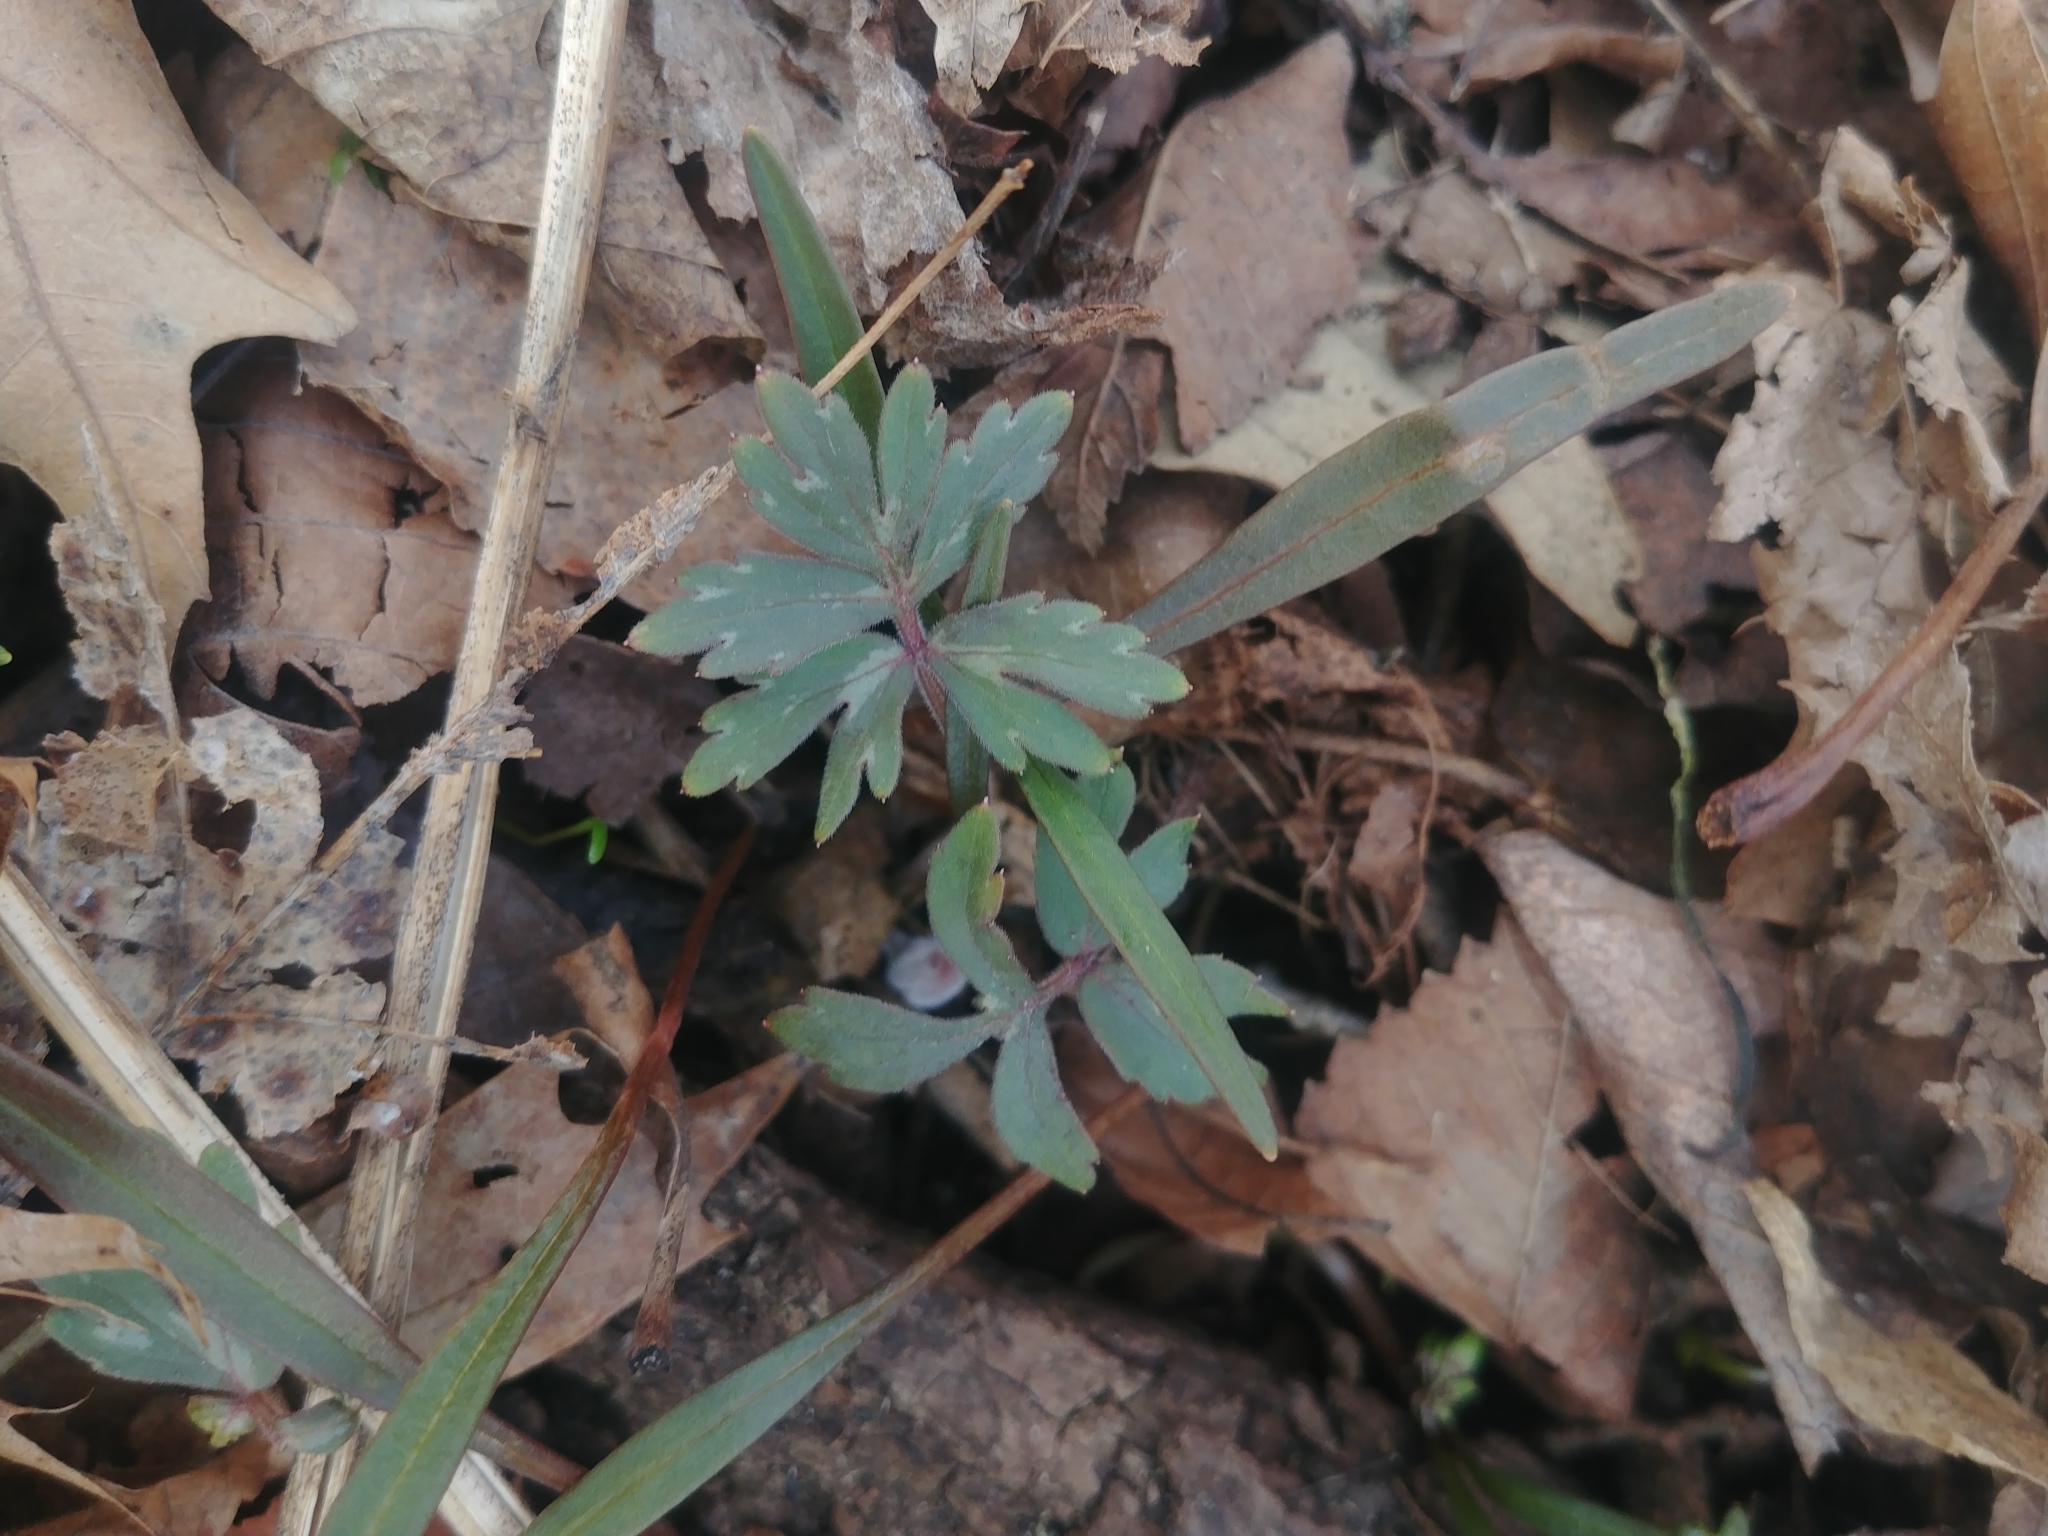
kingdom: Plantae
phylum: Tracheophyta
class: Magnoliopsida
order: Boraginales
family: Hydrophyllaceae
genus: Hydrophyllum
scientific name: Hydrophyllum virginianum
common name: Virginia waterleaf
